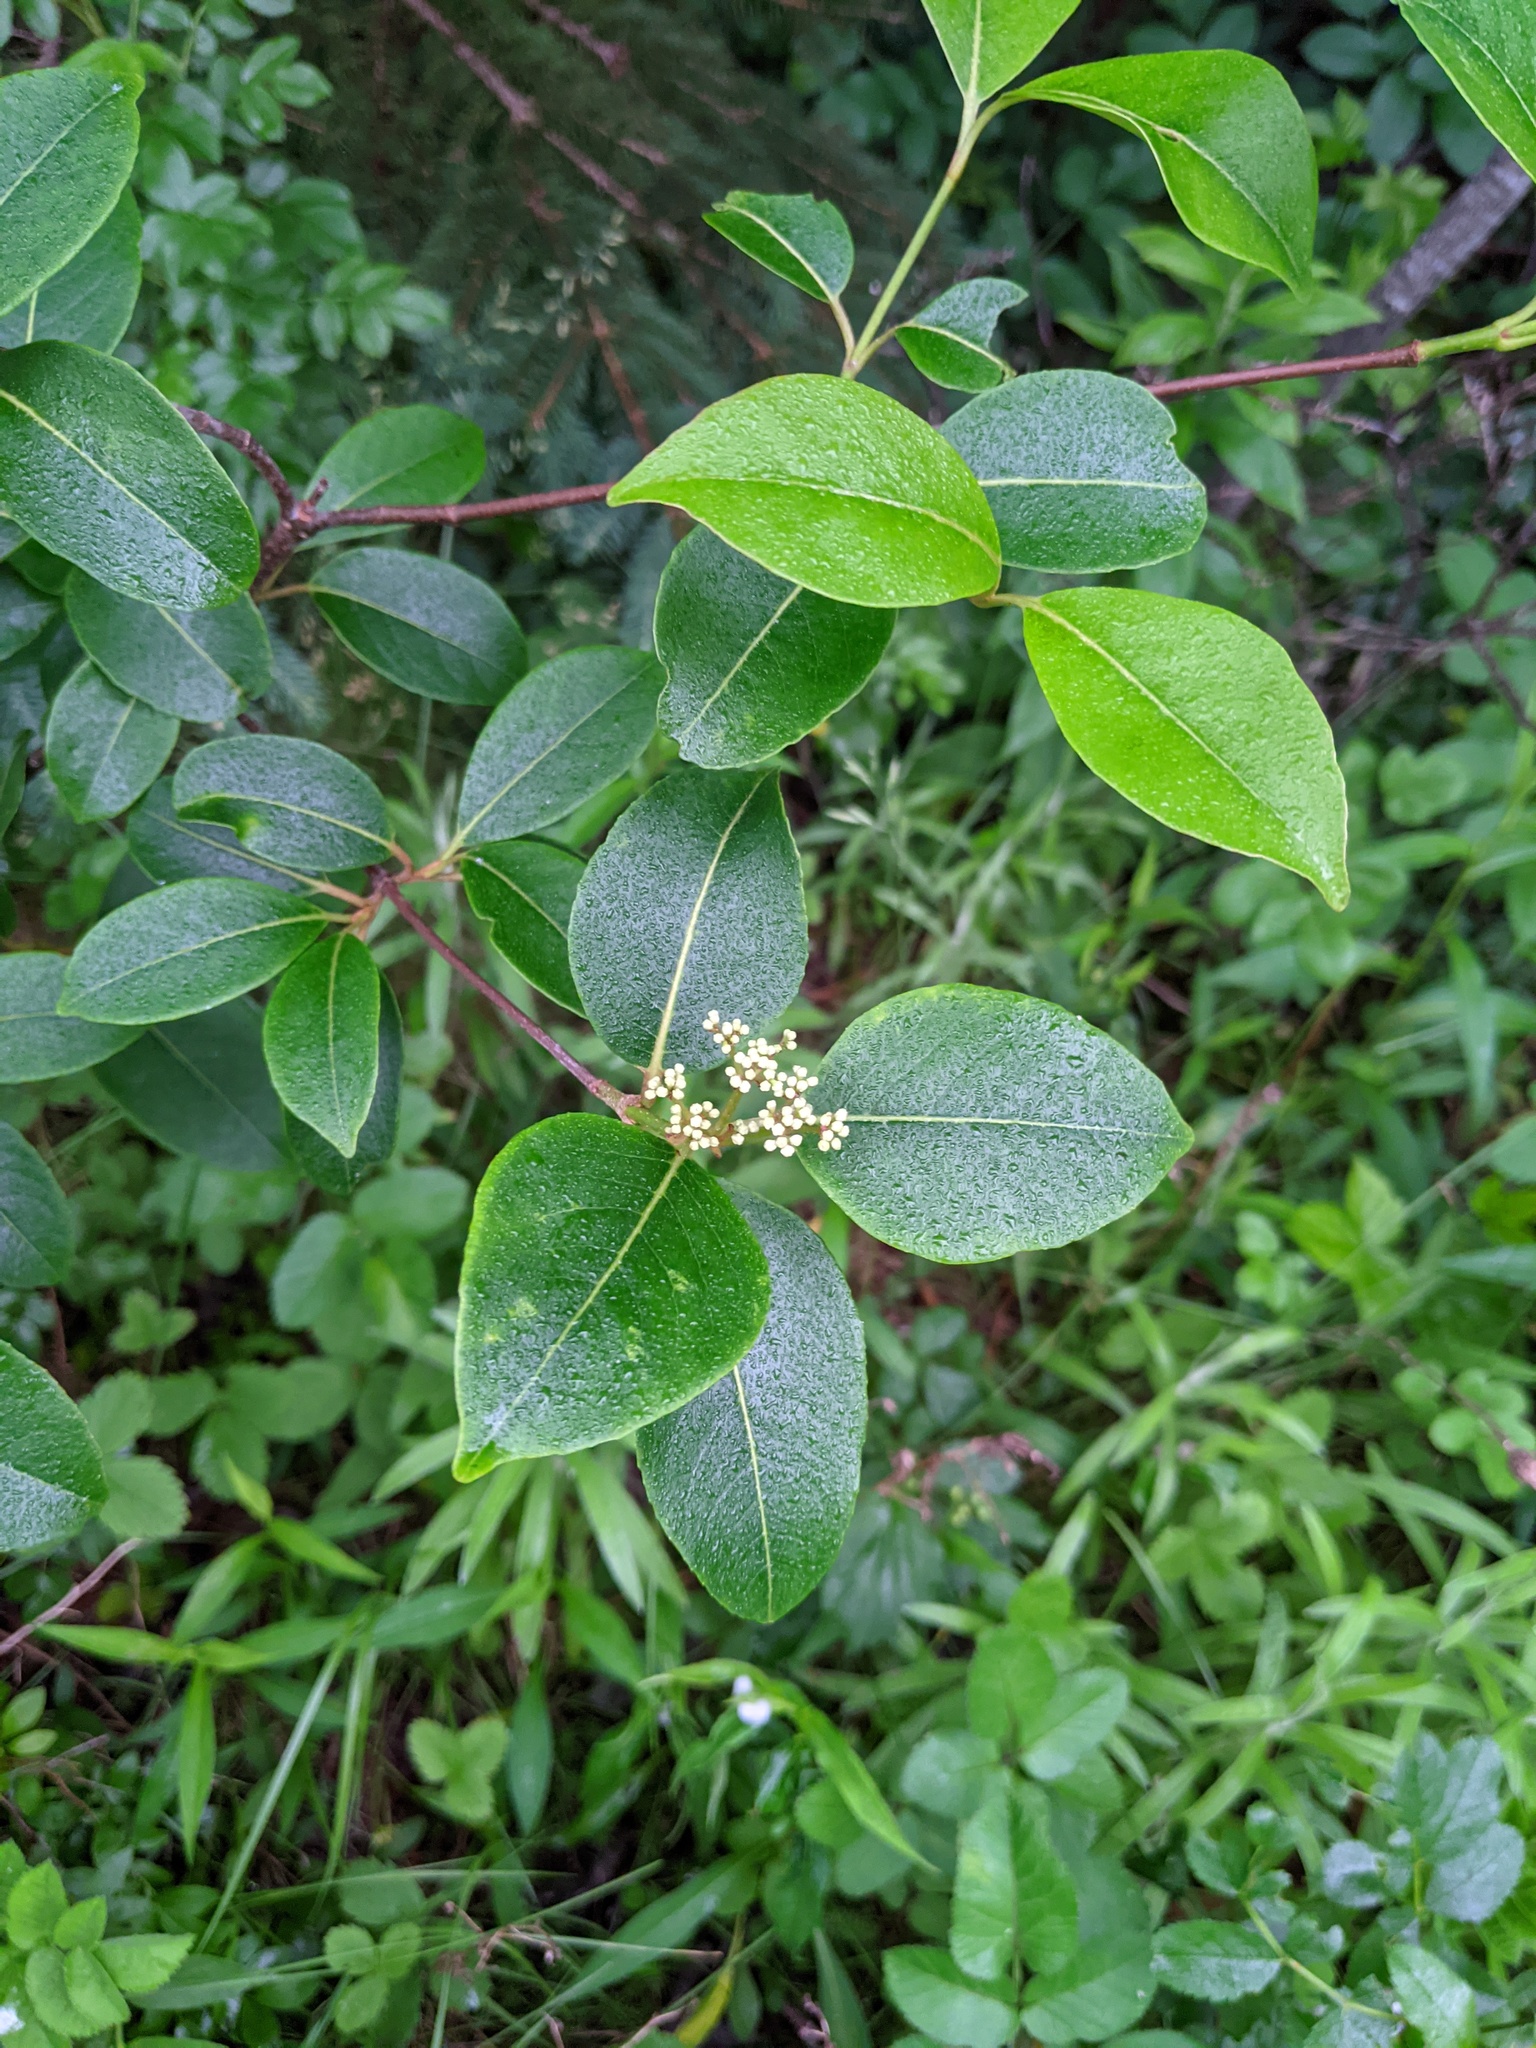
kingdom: Plantae
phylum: Tracheophyta
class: Magnoliopsida
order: Dipsacales
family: Viburnaceae
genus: Viburnum
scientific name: Viburnum cassinoides
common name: Swamp haw
